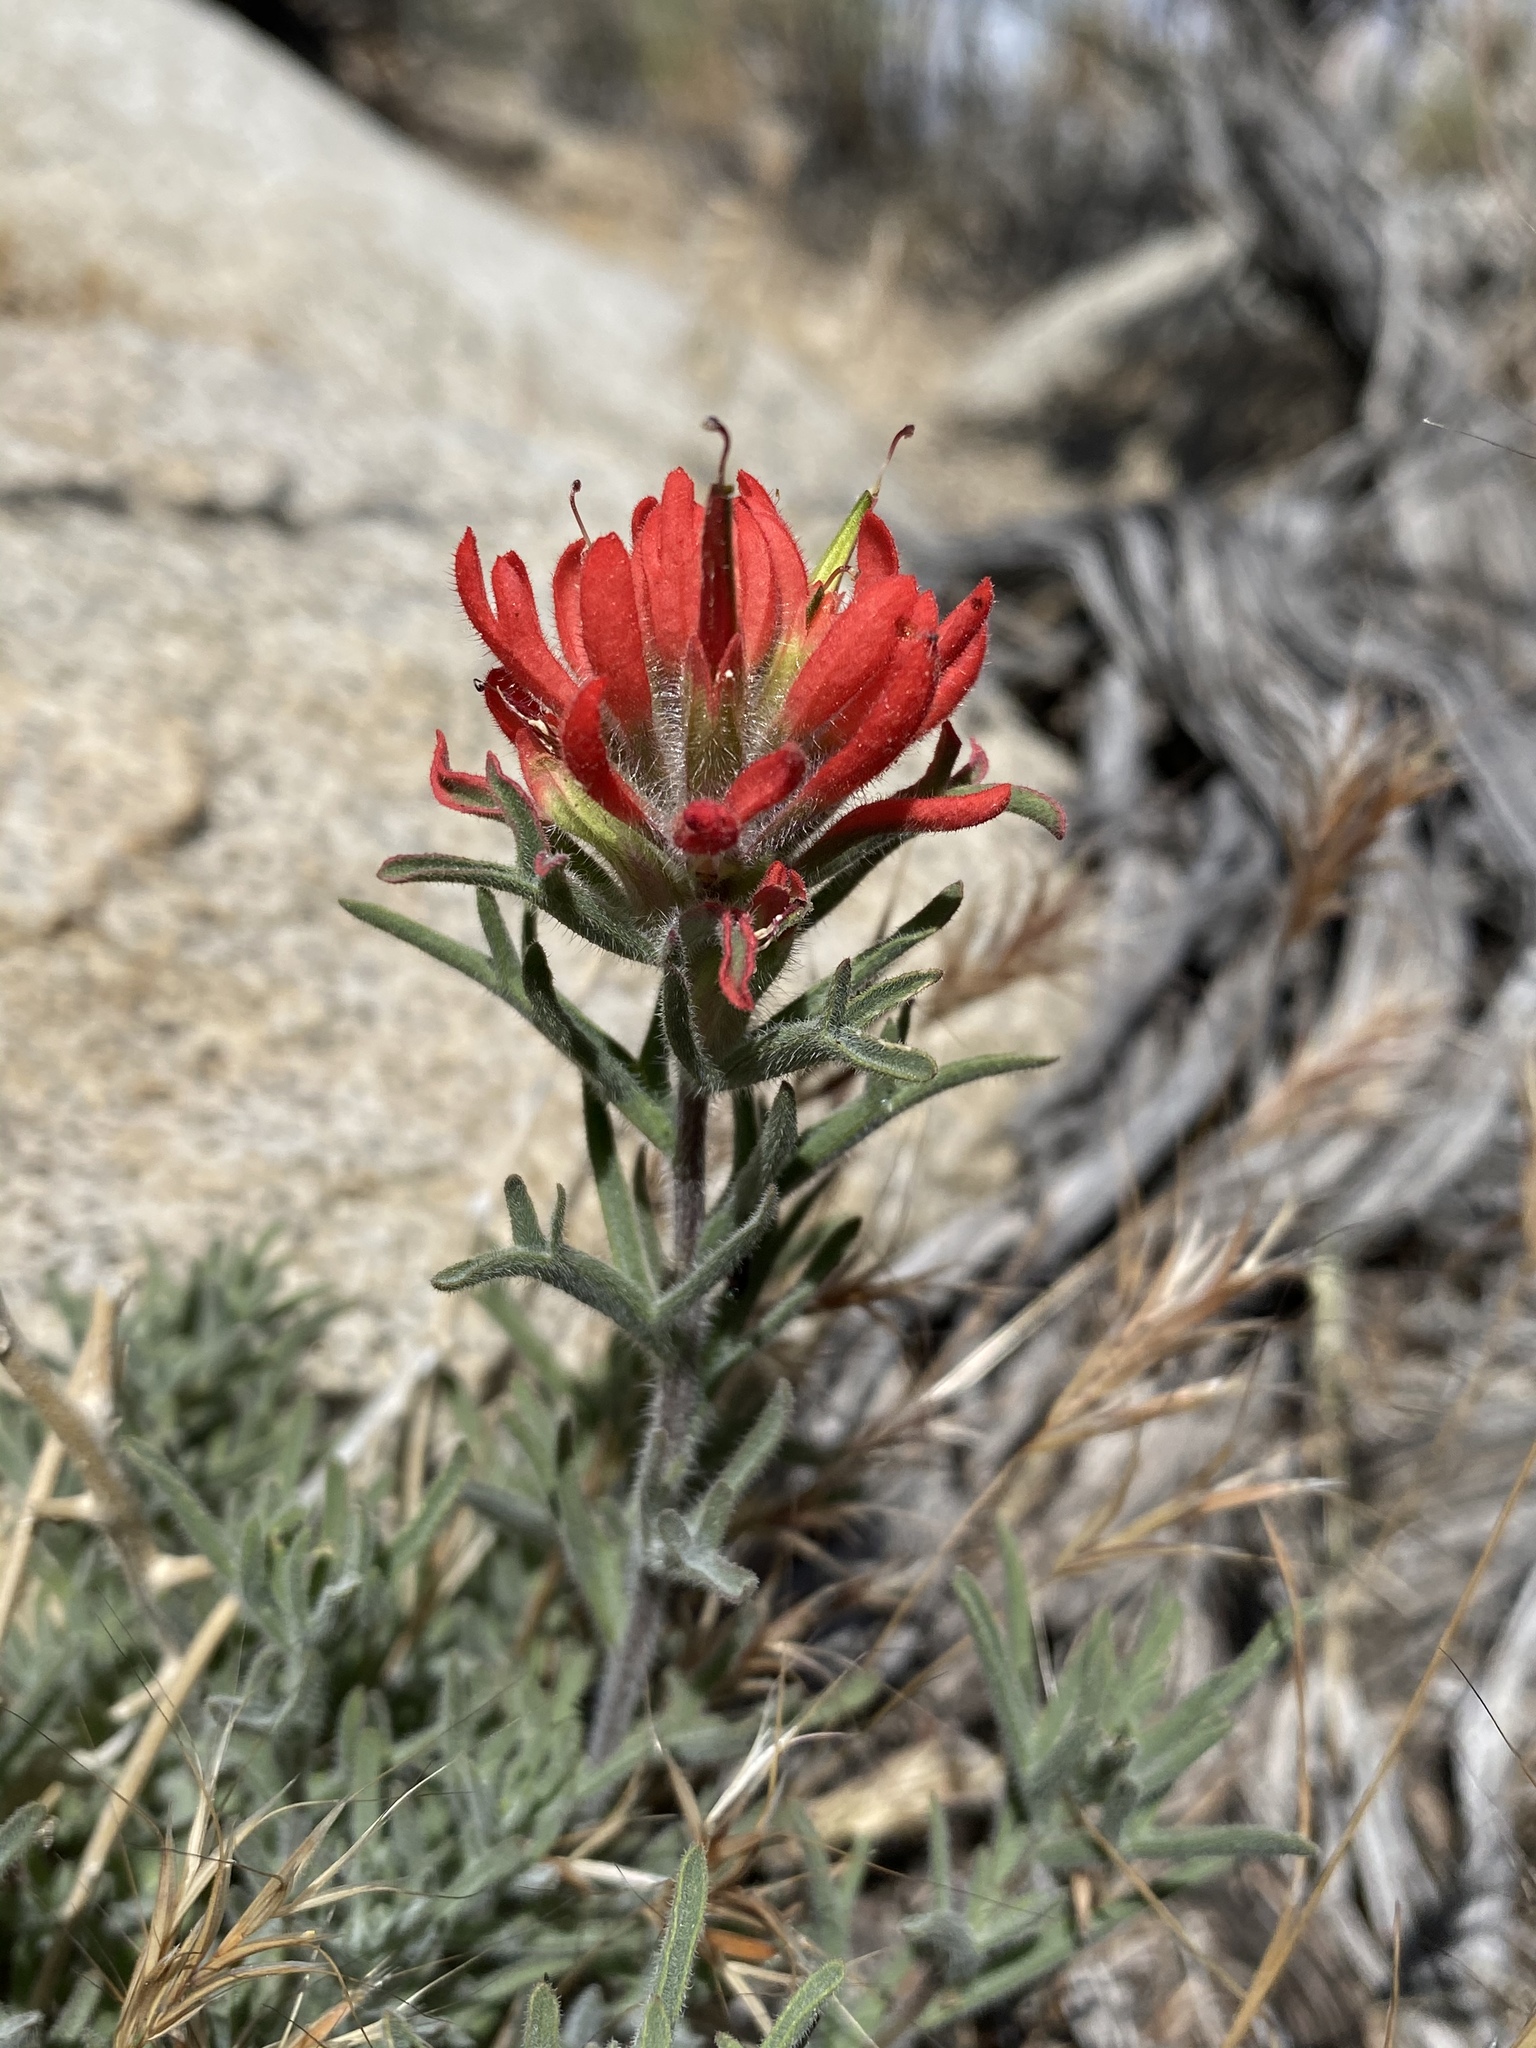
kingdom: Plantae
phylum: Tracheophyta
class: Magnoliopsida
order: Lamiales
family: Orobanchaceae
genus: Castilleja
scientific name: Castilleja chromosa
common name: Desert paintbrush
